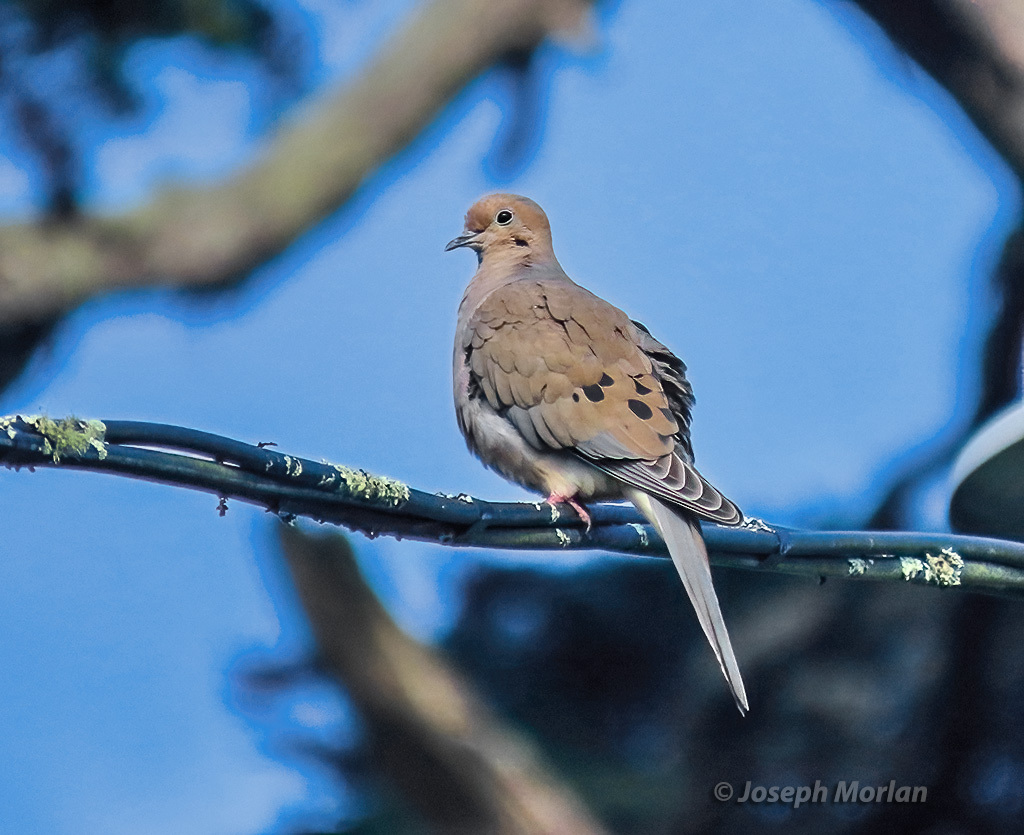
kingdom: Animalia
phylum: Chordata
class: Aves
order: Columbiformes
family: Columbidae
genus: Zenaida
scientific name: Zenaida macroura
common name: Mourning dove
